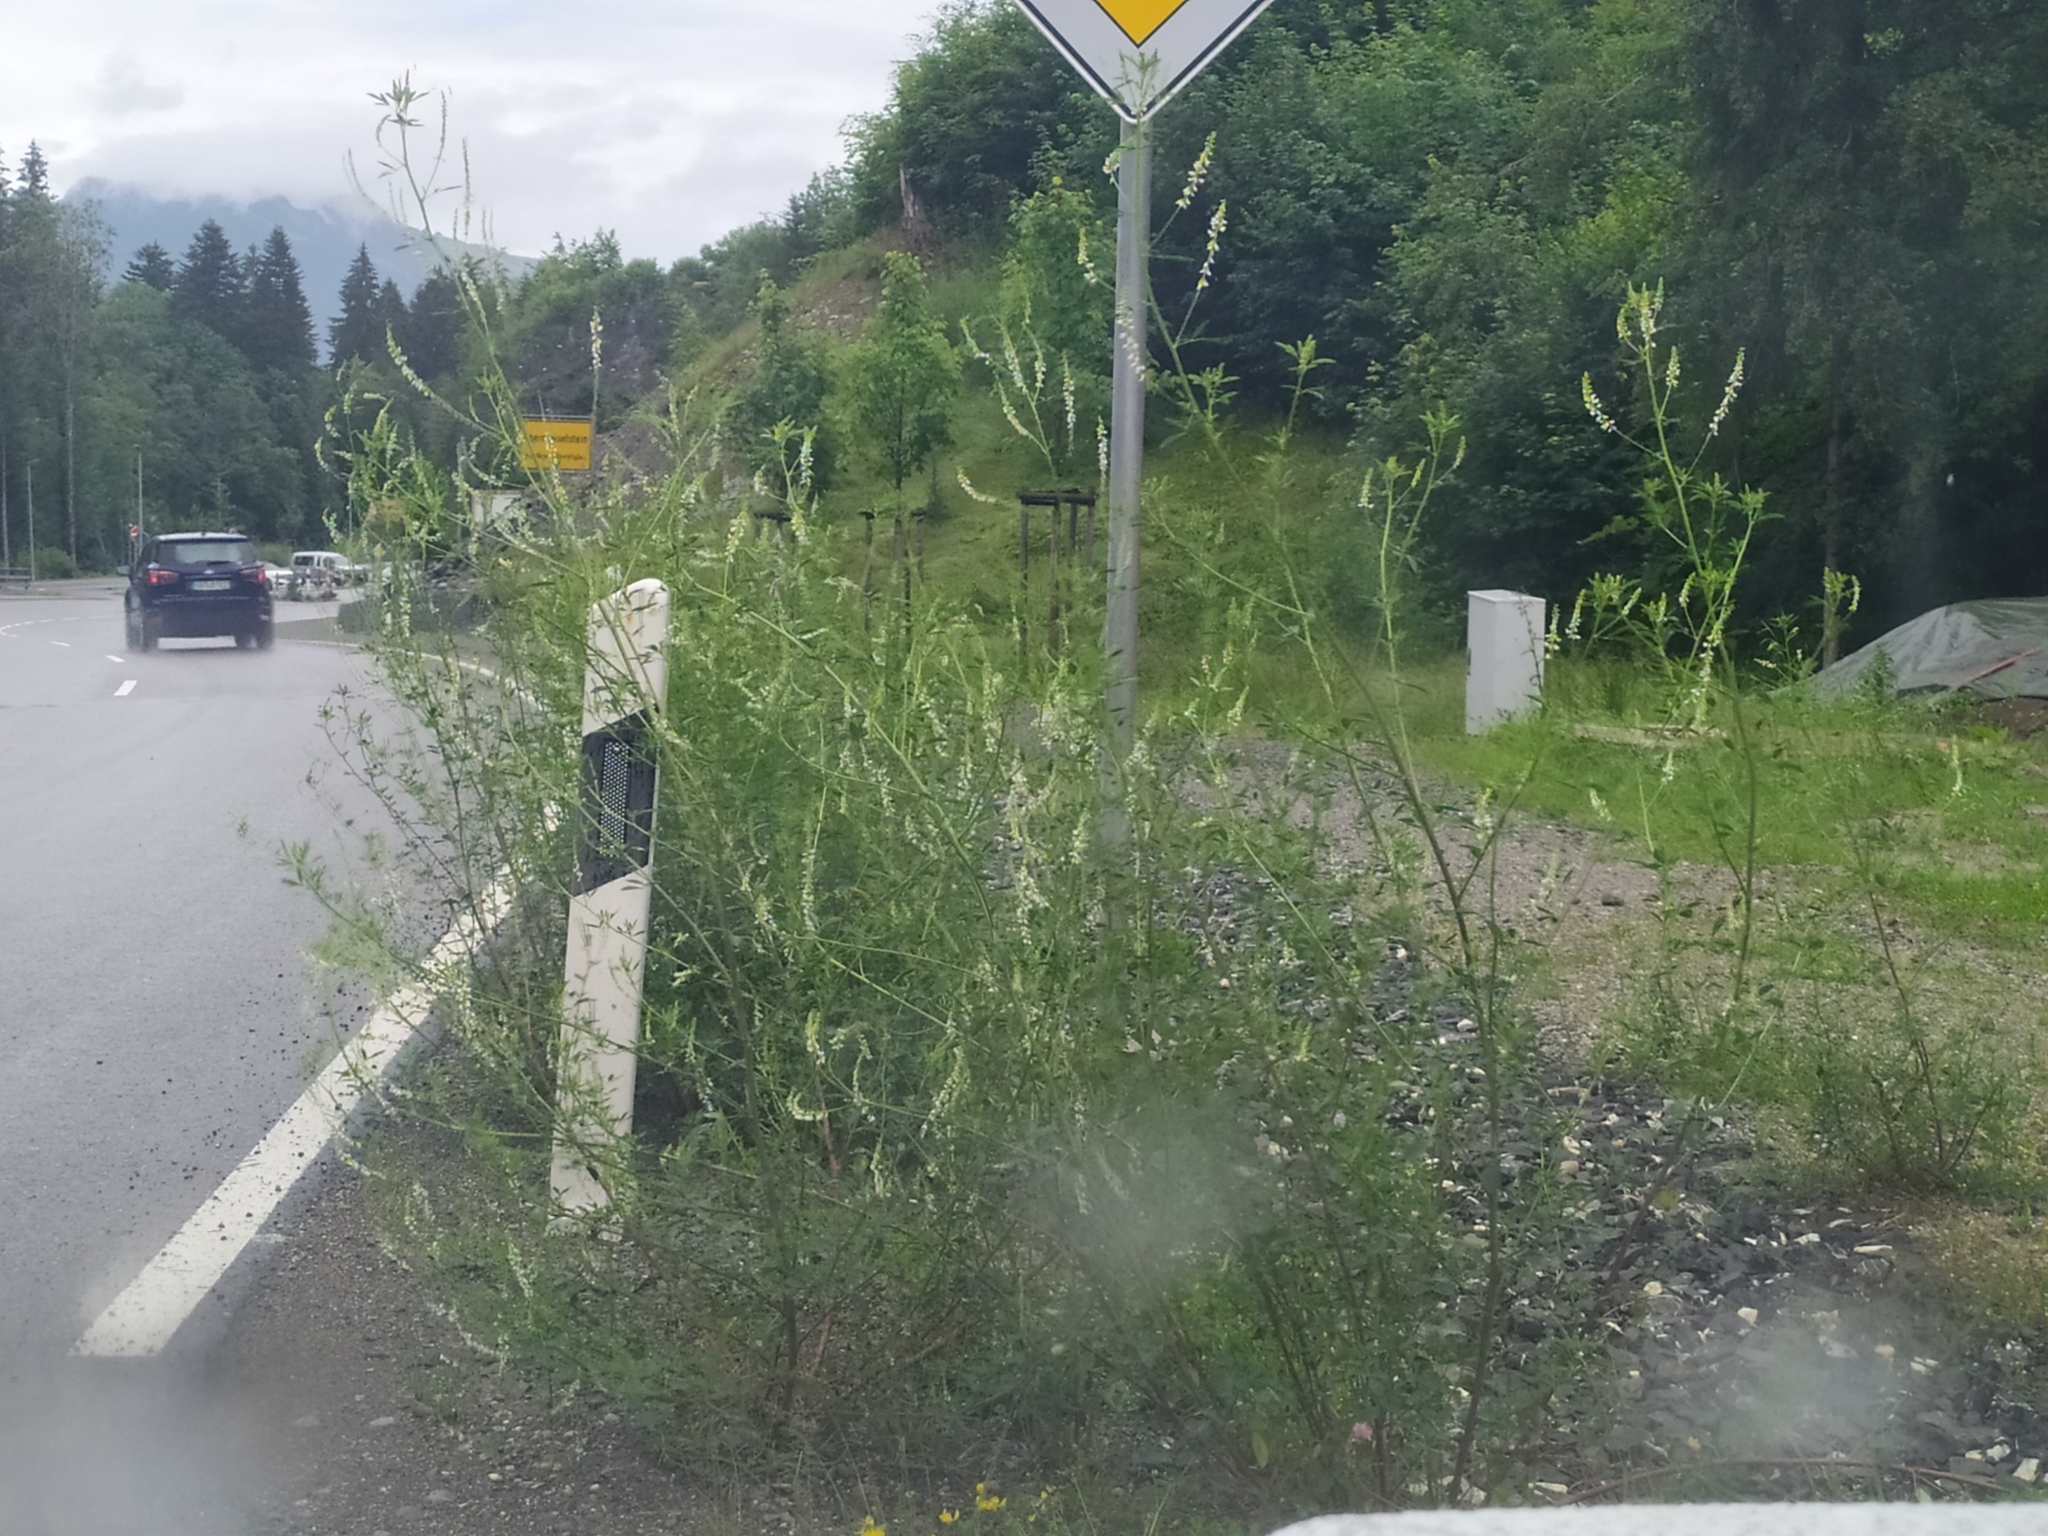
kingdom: Plantae
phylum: Tracheophyta
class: Magnoliopsida
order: Fabales
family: Fabaceae
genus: Melilotus
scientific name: Melilotus albus
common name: White melilot
